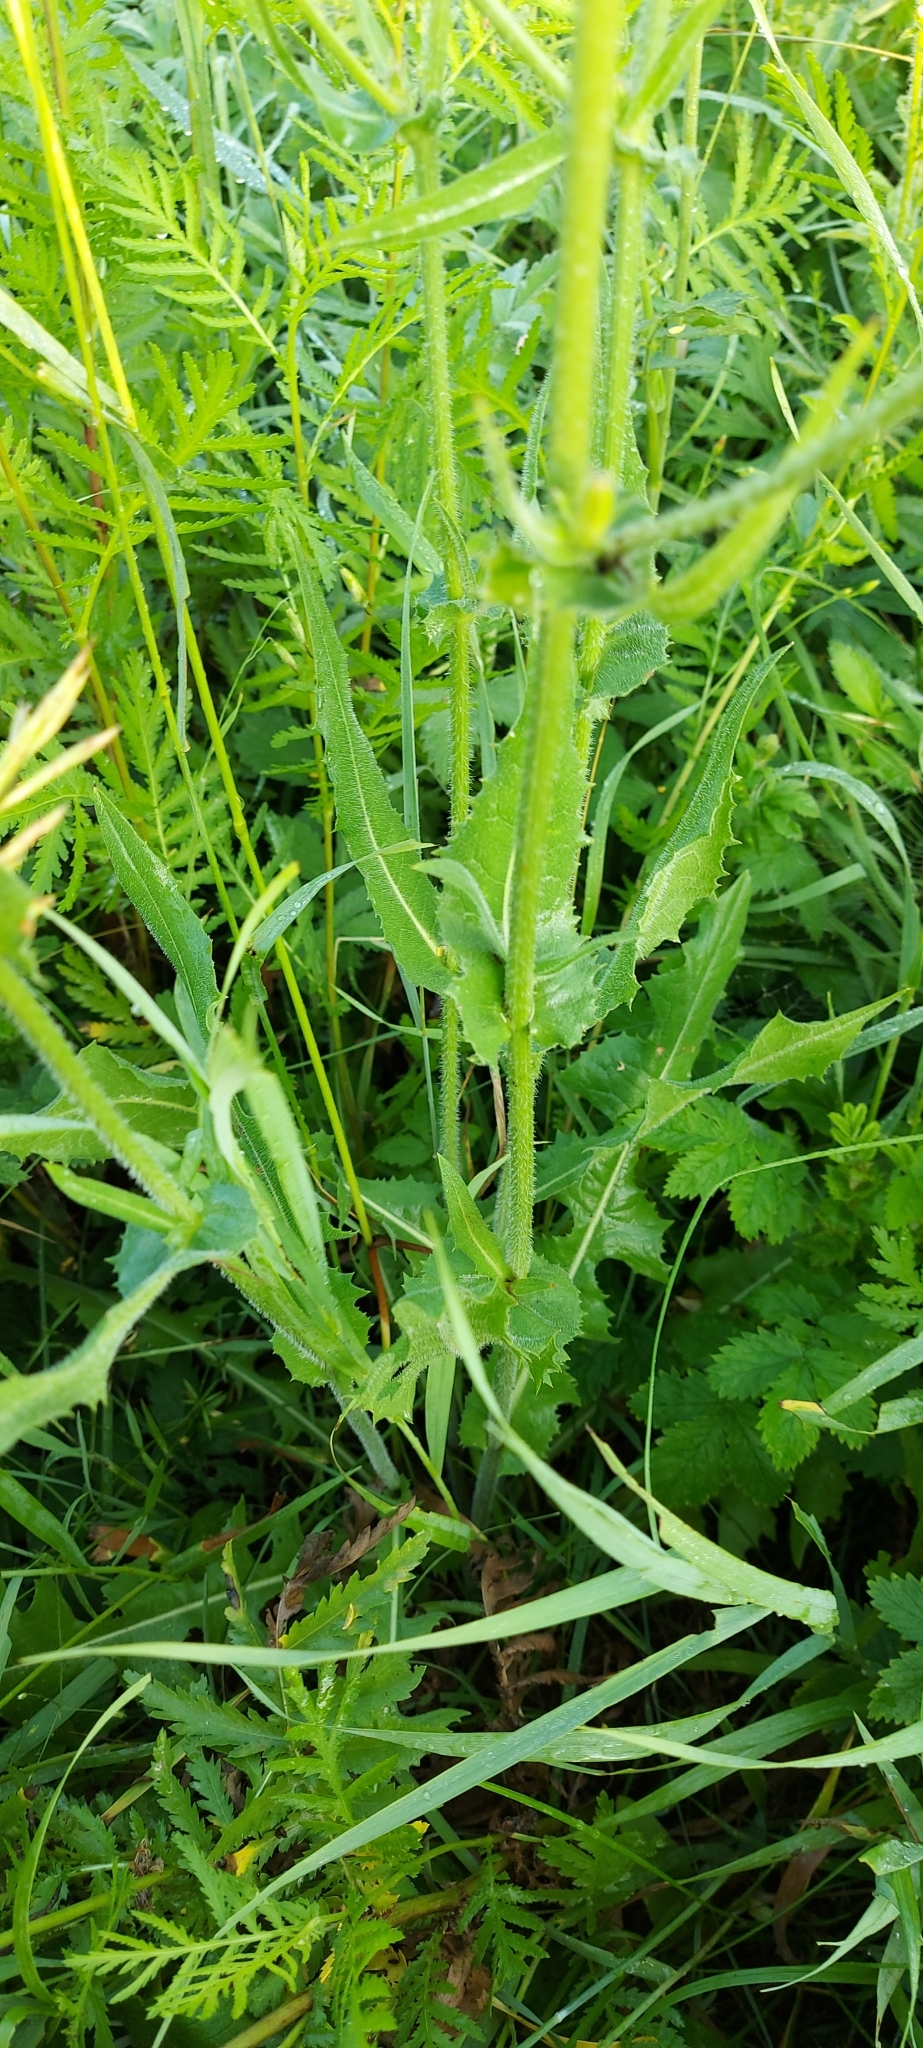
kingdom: Plantae
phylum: Tracheophyta
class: Magnoliopsida
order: Asterales
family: Asteraceae
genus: Cichorium
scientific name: Cichorium intybus
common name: Chicory
